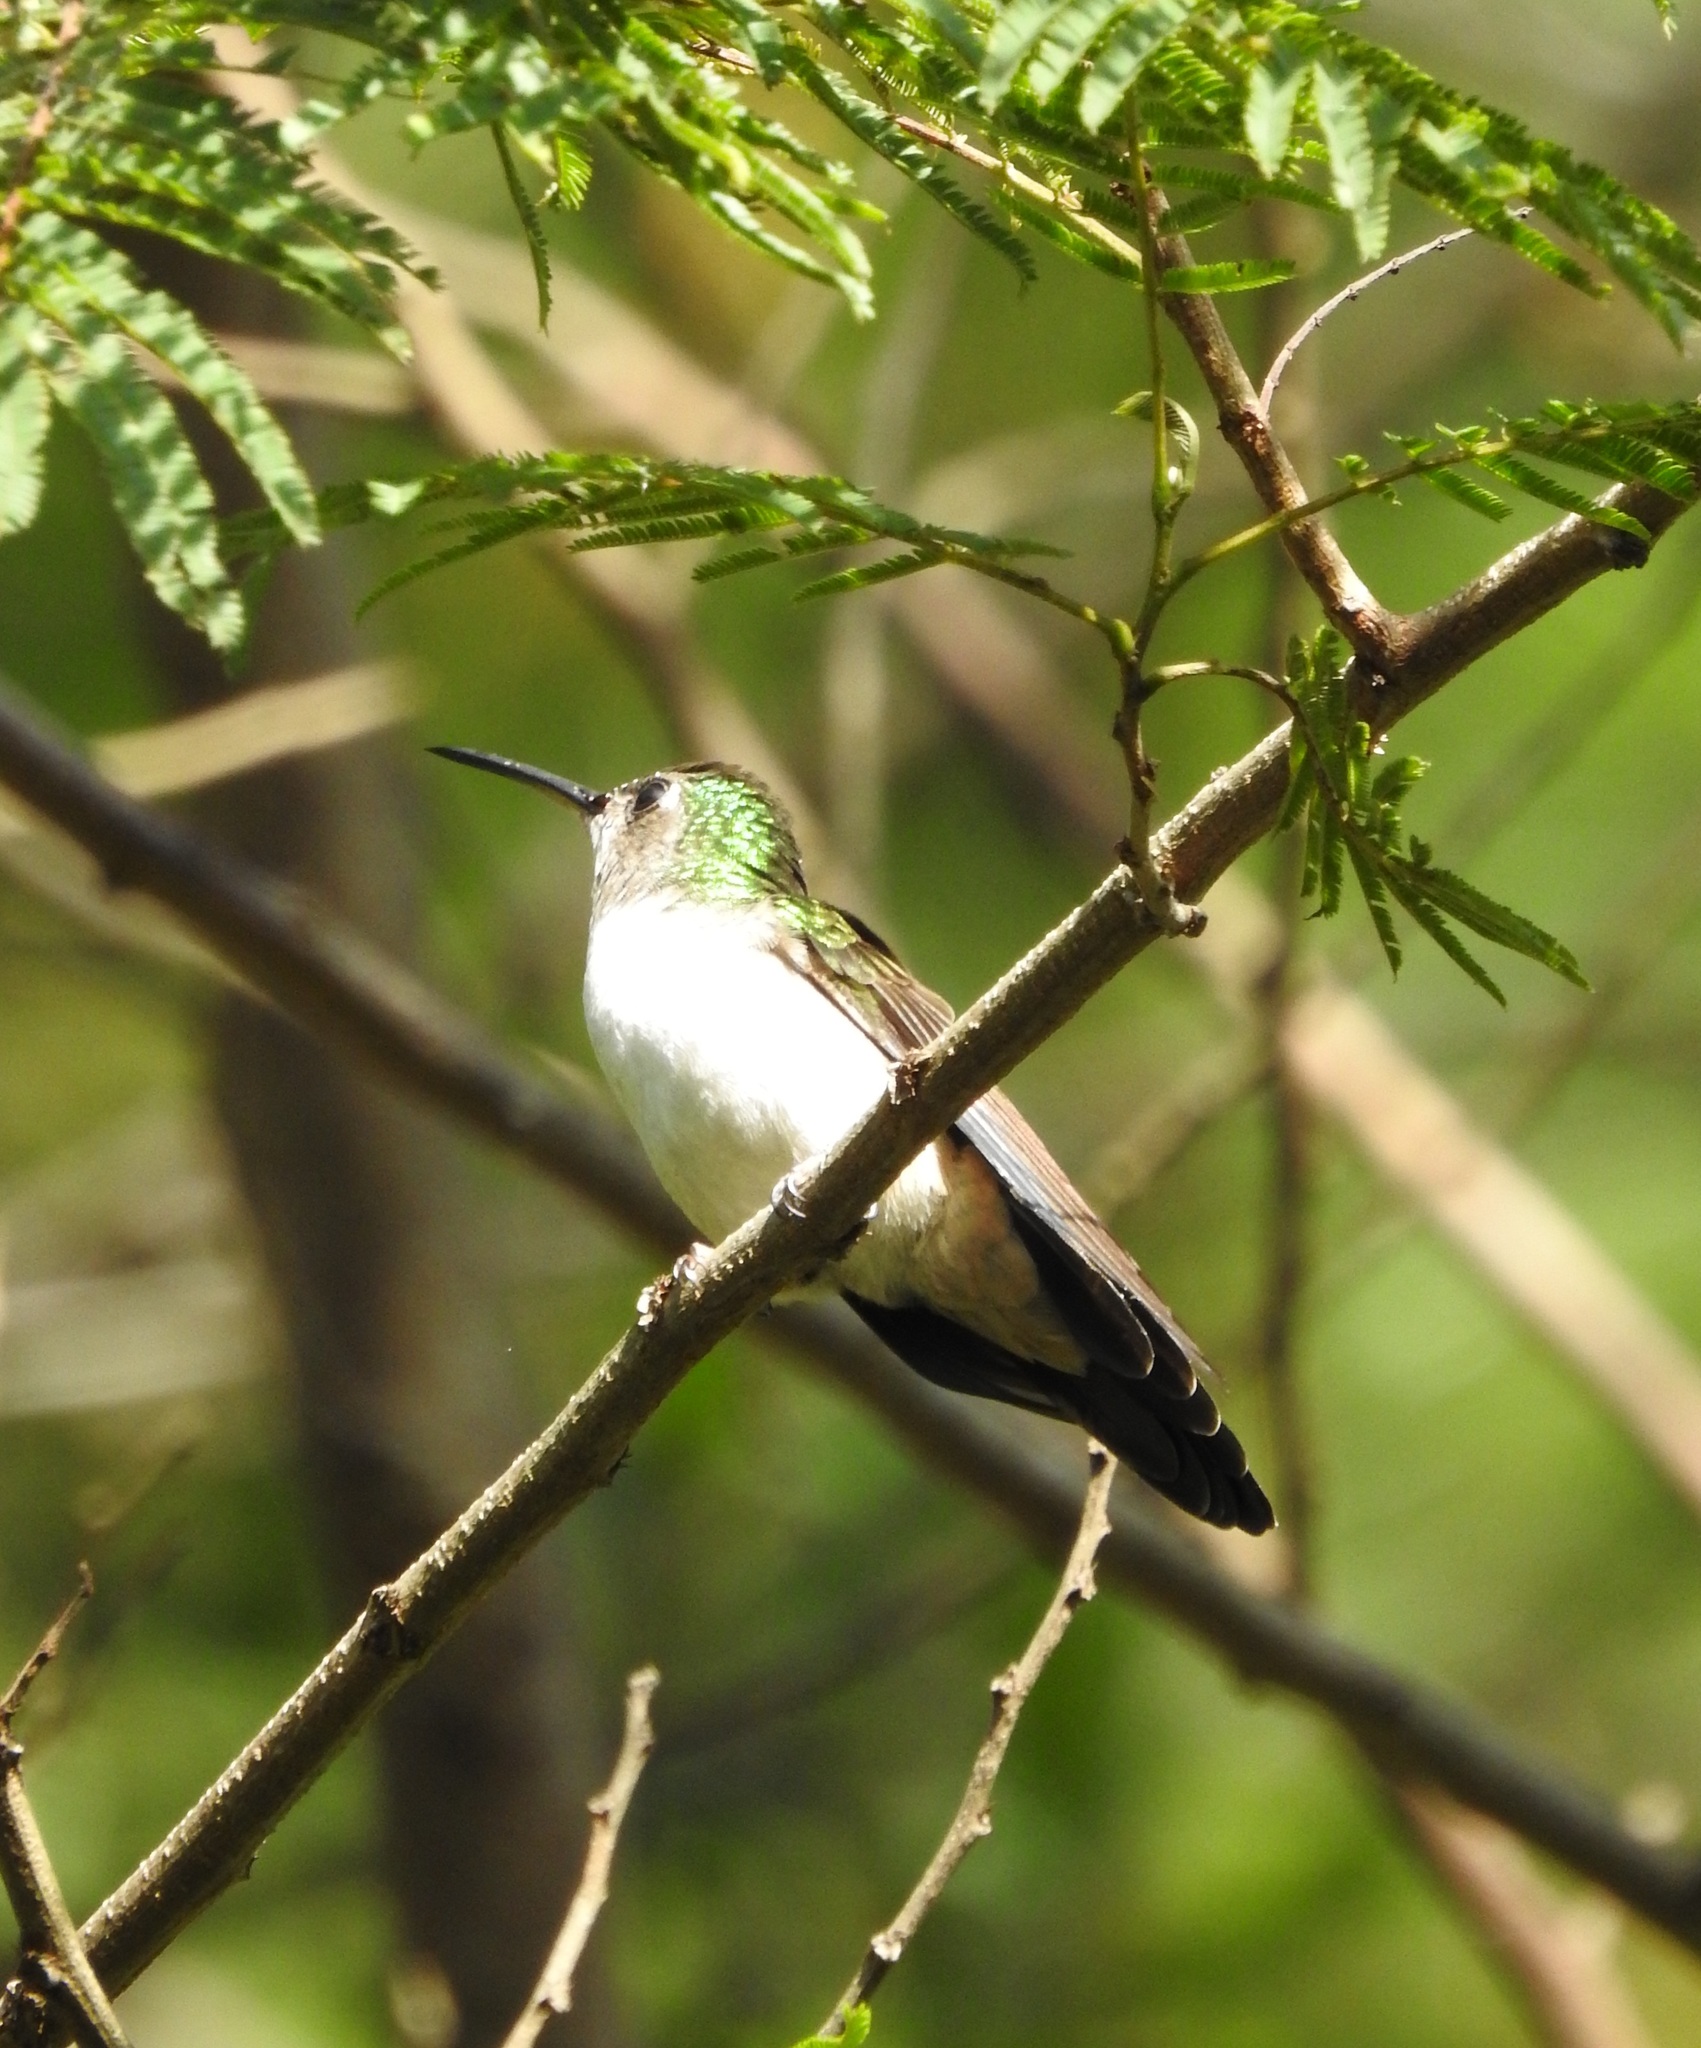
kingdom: Animalia
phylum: Chordata
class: Aves
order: Apodiformes
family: Trochilidae
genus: Pampa
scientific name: Pampa curvipennis
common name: Curve-winged sabrewing
